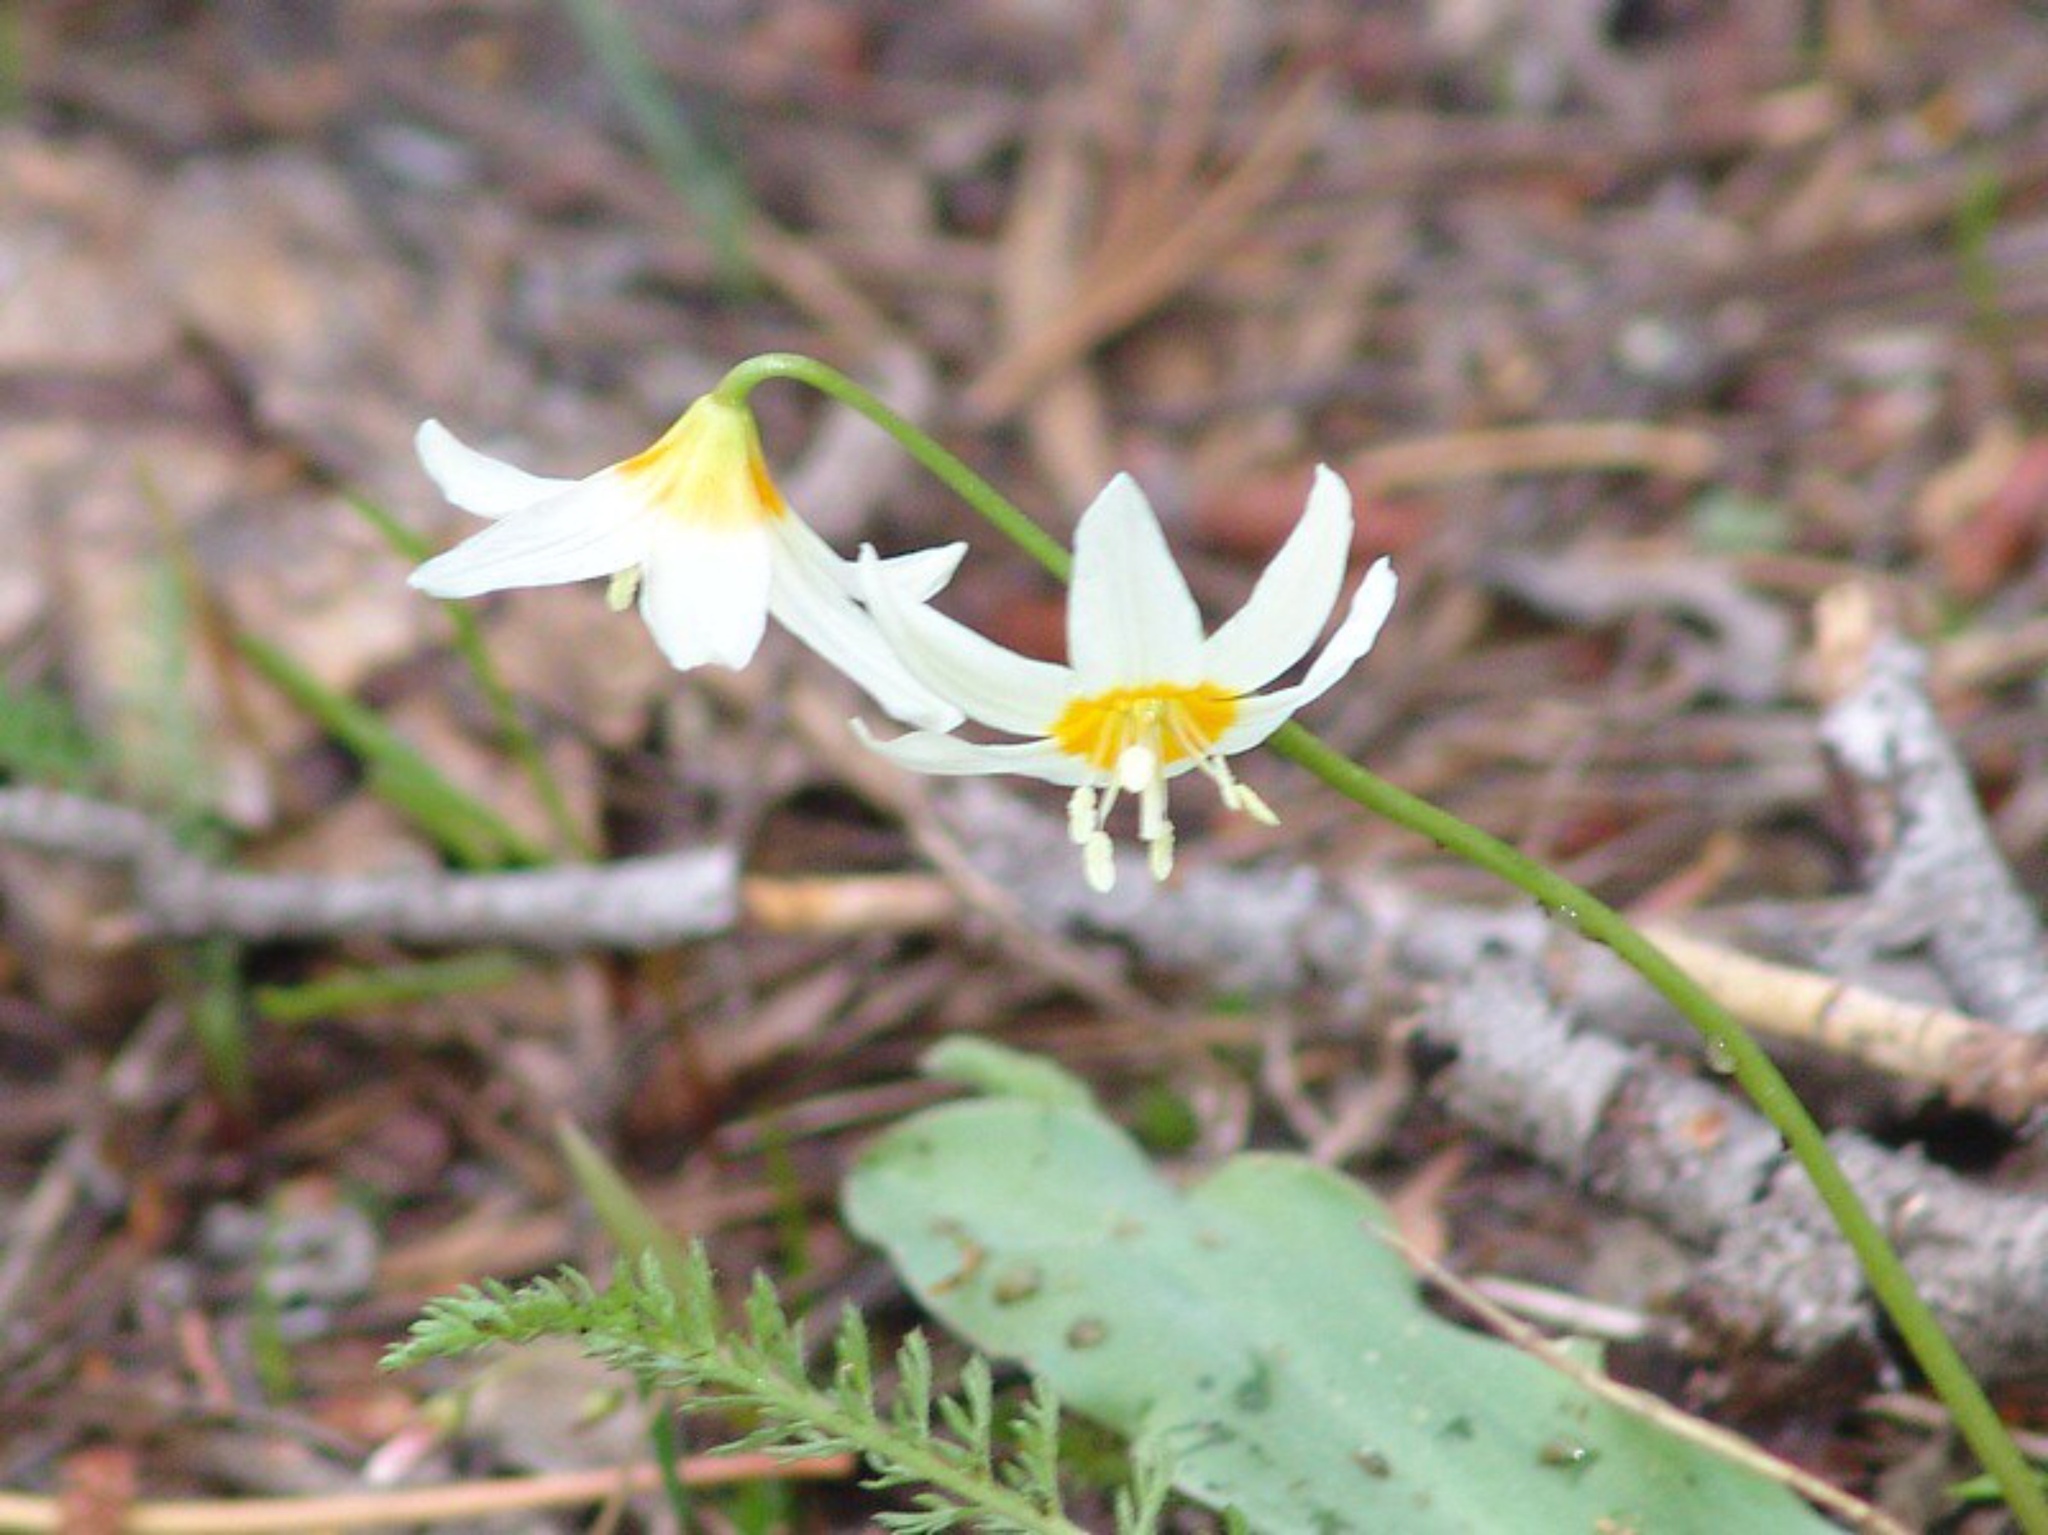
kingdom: Plantae
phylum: Tracheophyta
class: Liliopsida
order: Liliales
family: Liliaceae
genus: Erythronium
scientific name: Erythronium purpurascens
